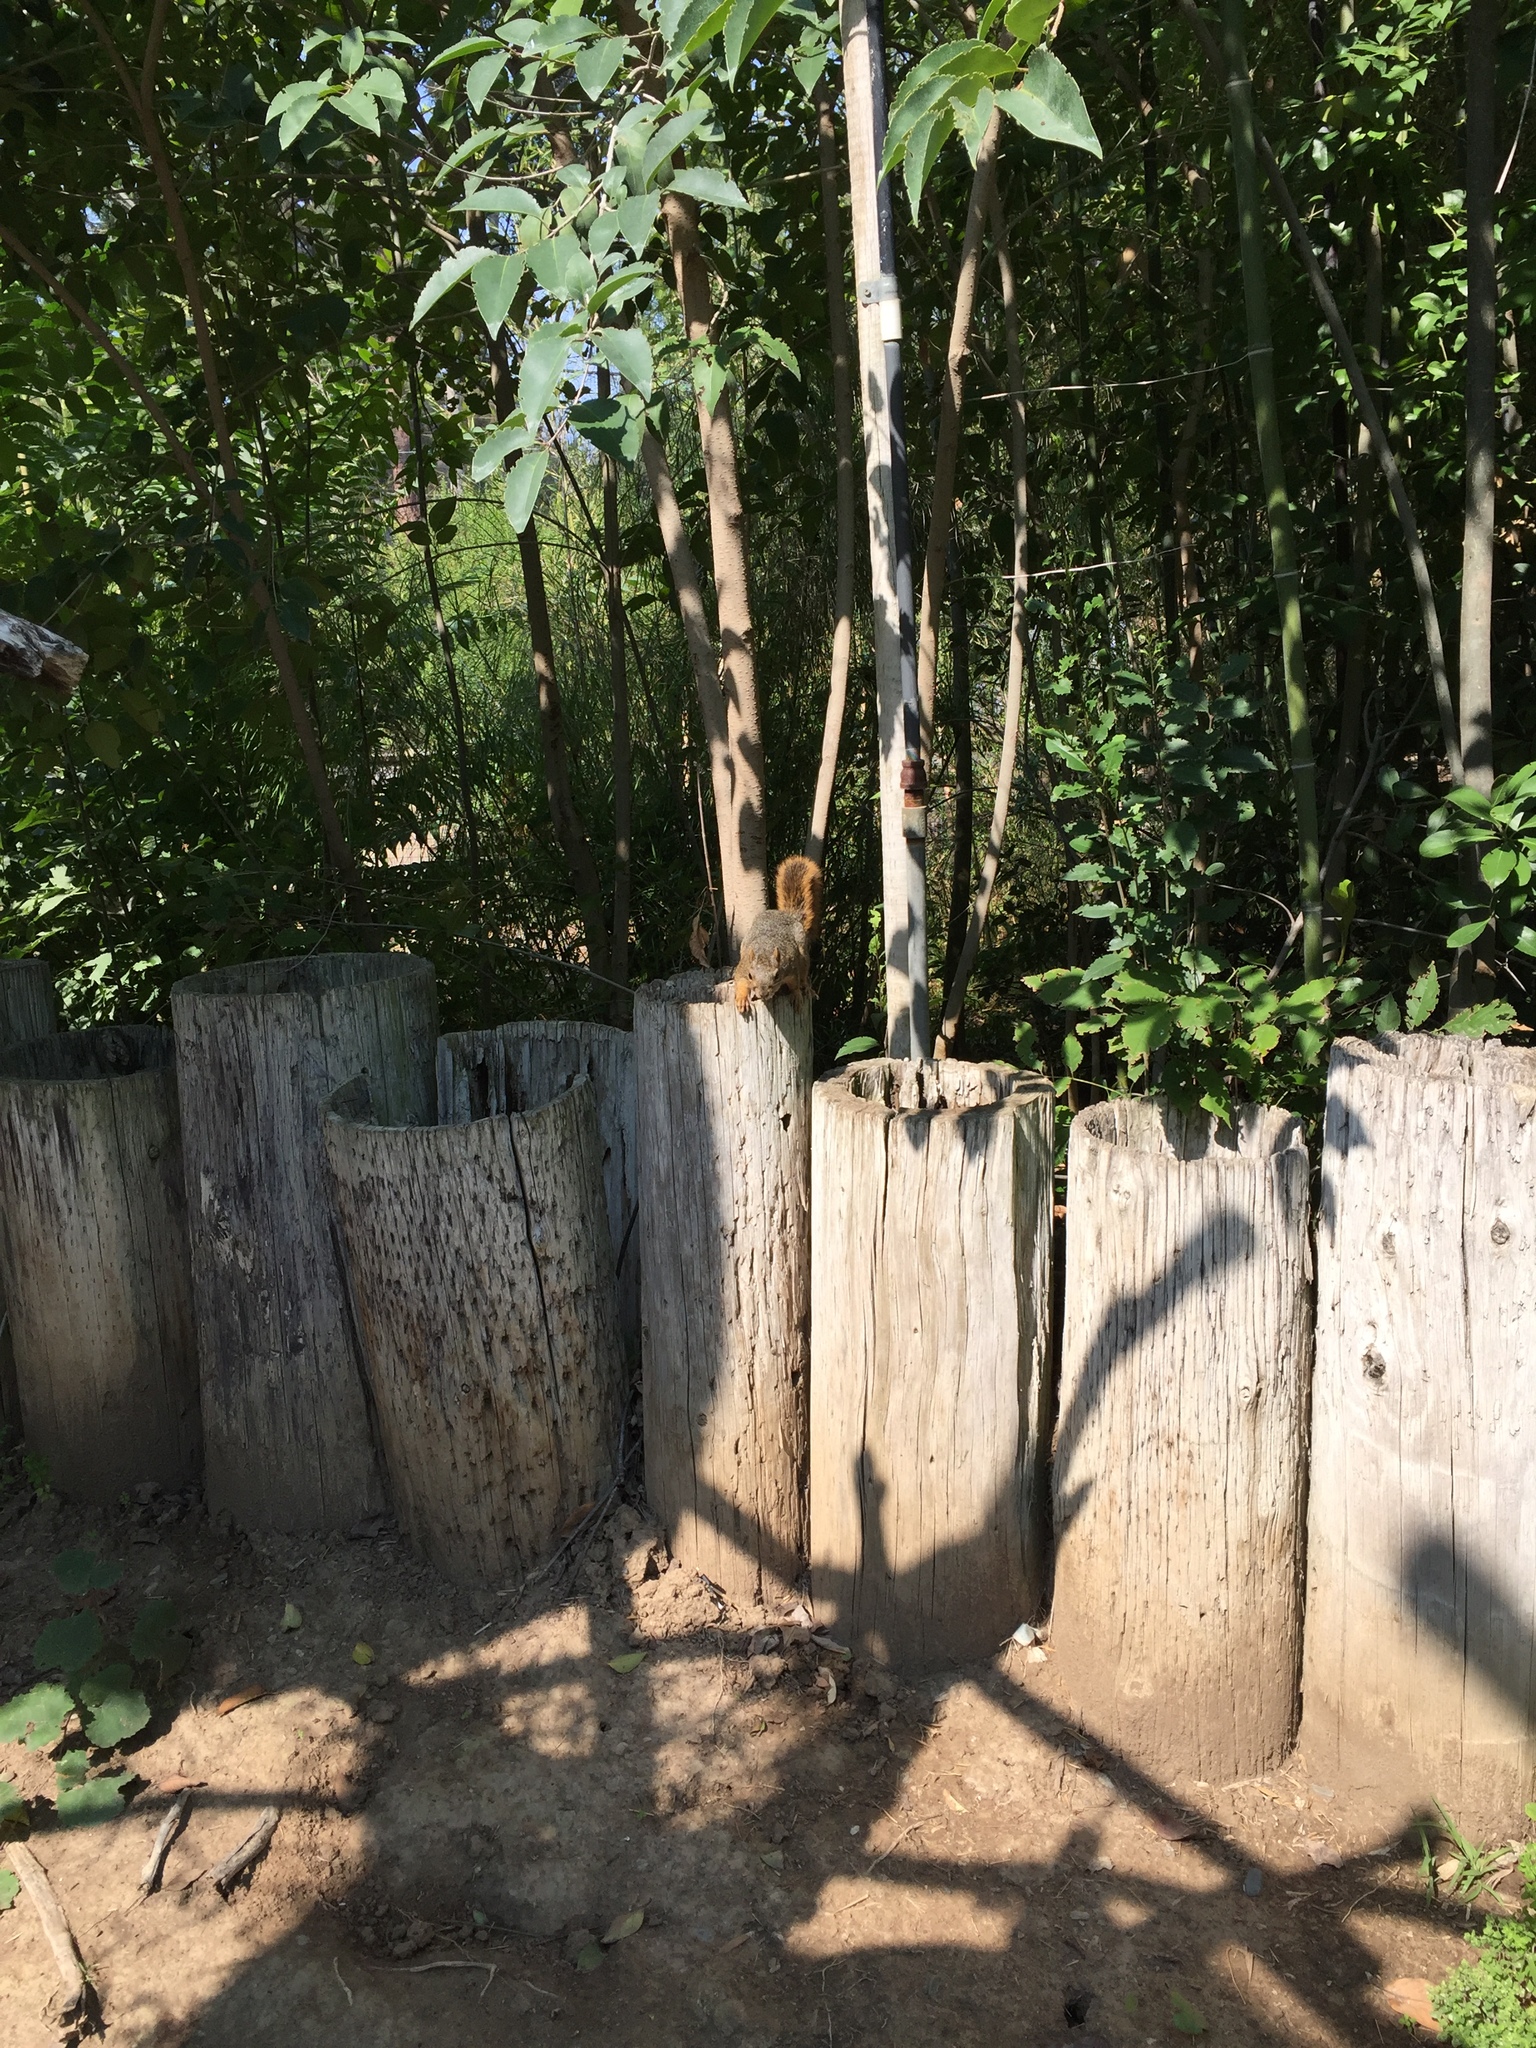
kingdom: Animalia
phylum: Chordata
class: Mammalia
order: Rodentia
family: Sciuridae
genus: Sciurus
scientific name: Sciurus niger
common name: Fox squirrel
